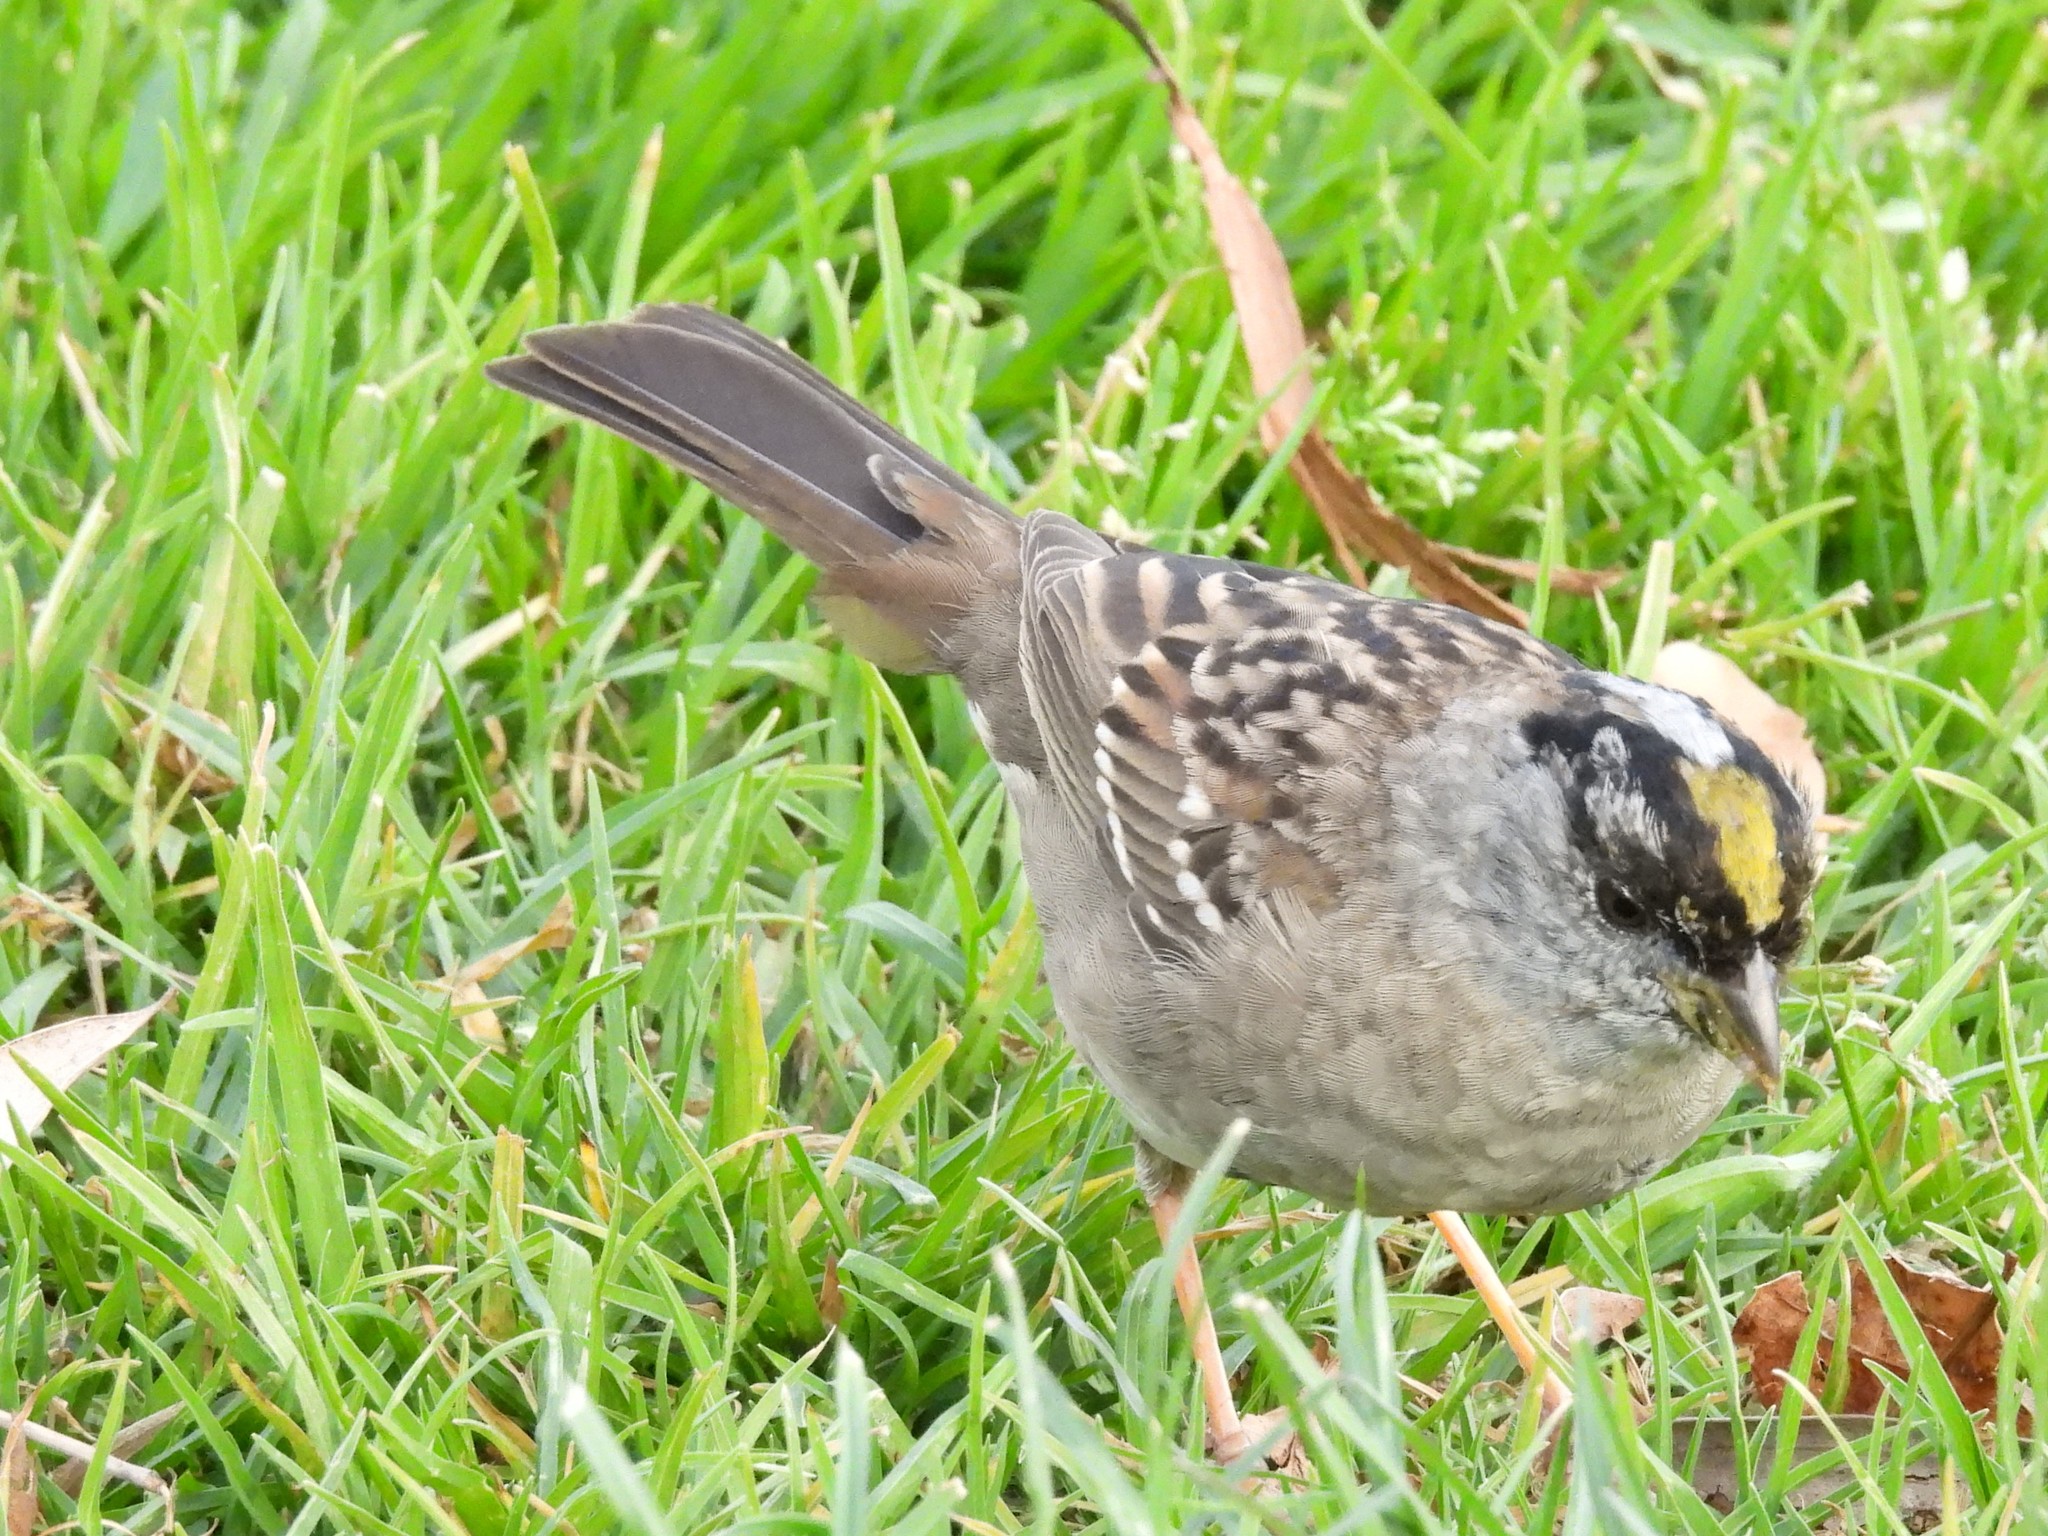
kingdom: Animalia
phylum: Chordata
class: Aves
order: Passeriformes
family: Passerellidae
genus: Zonotrichia
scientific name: Zonotrichia atricapilla
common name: Golden-crowned sparrow
